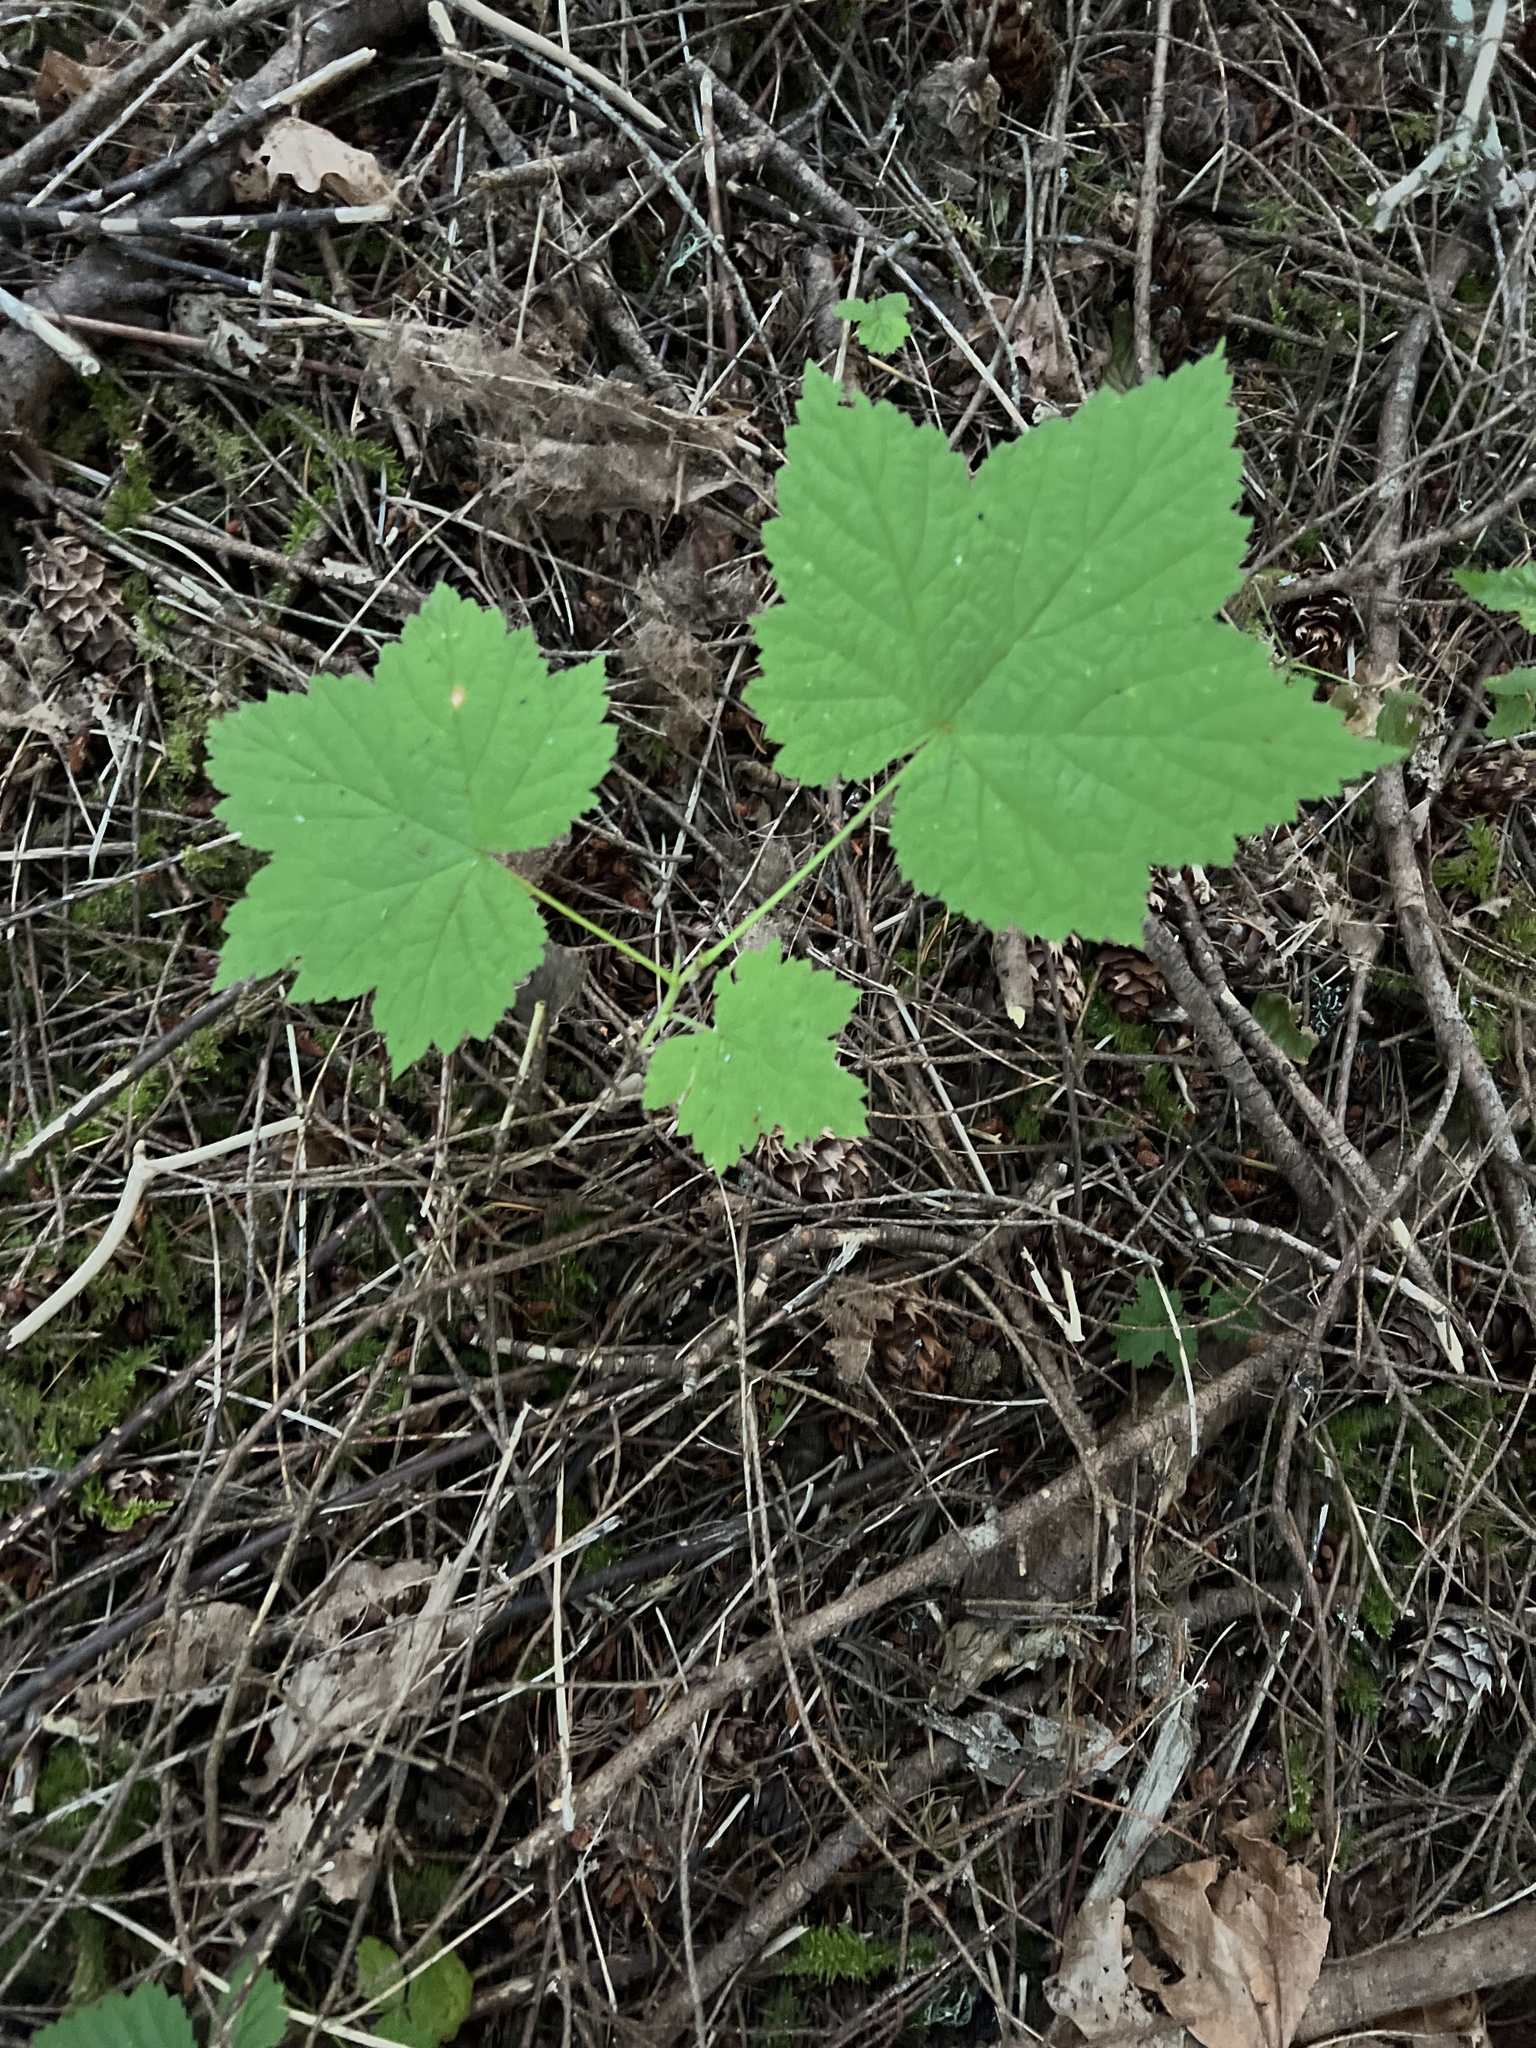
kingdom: Plantae
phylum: Tracheophyta
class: Magnoliopsida
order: Rosales
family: Rosaceae
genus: Rubus
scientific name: Rubus parviflorus
